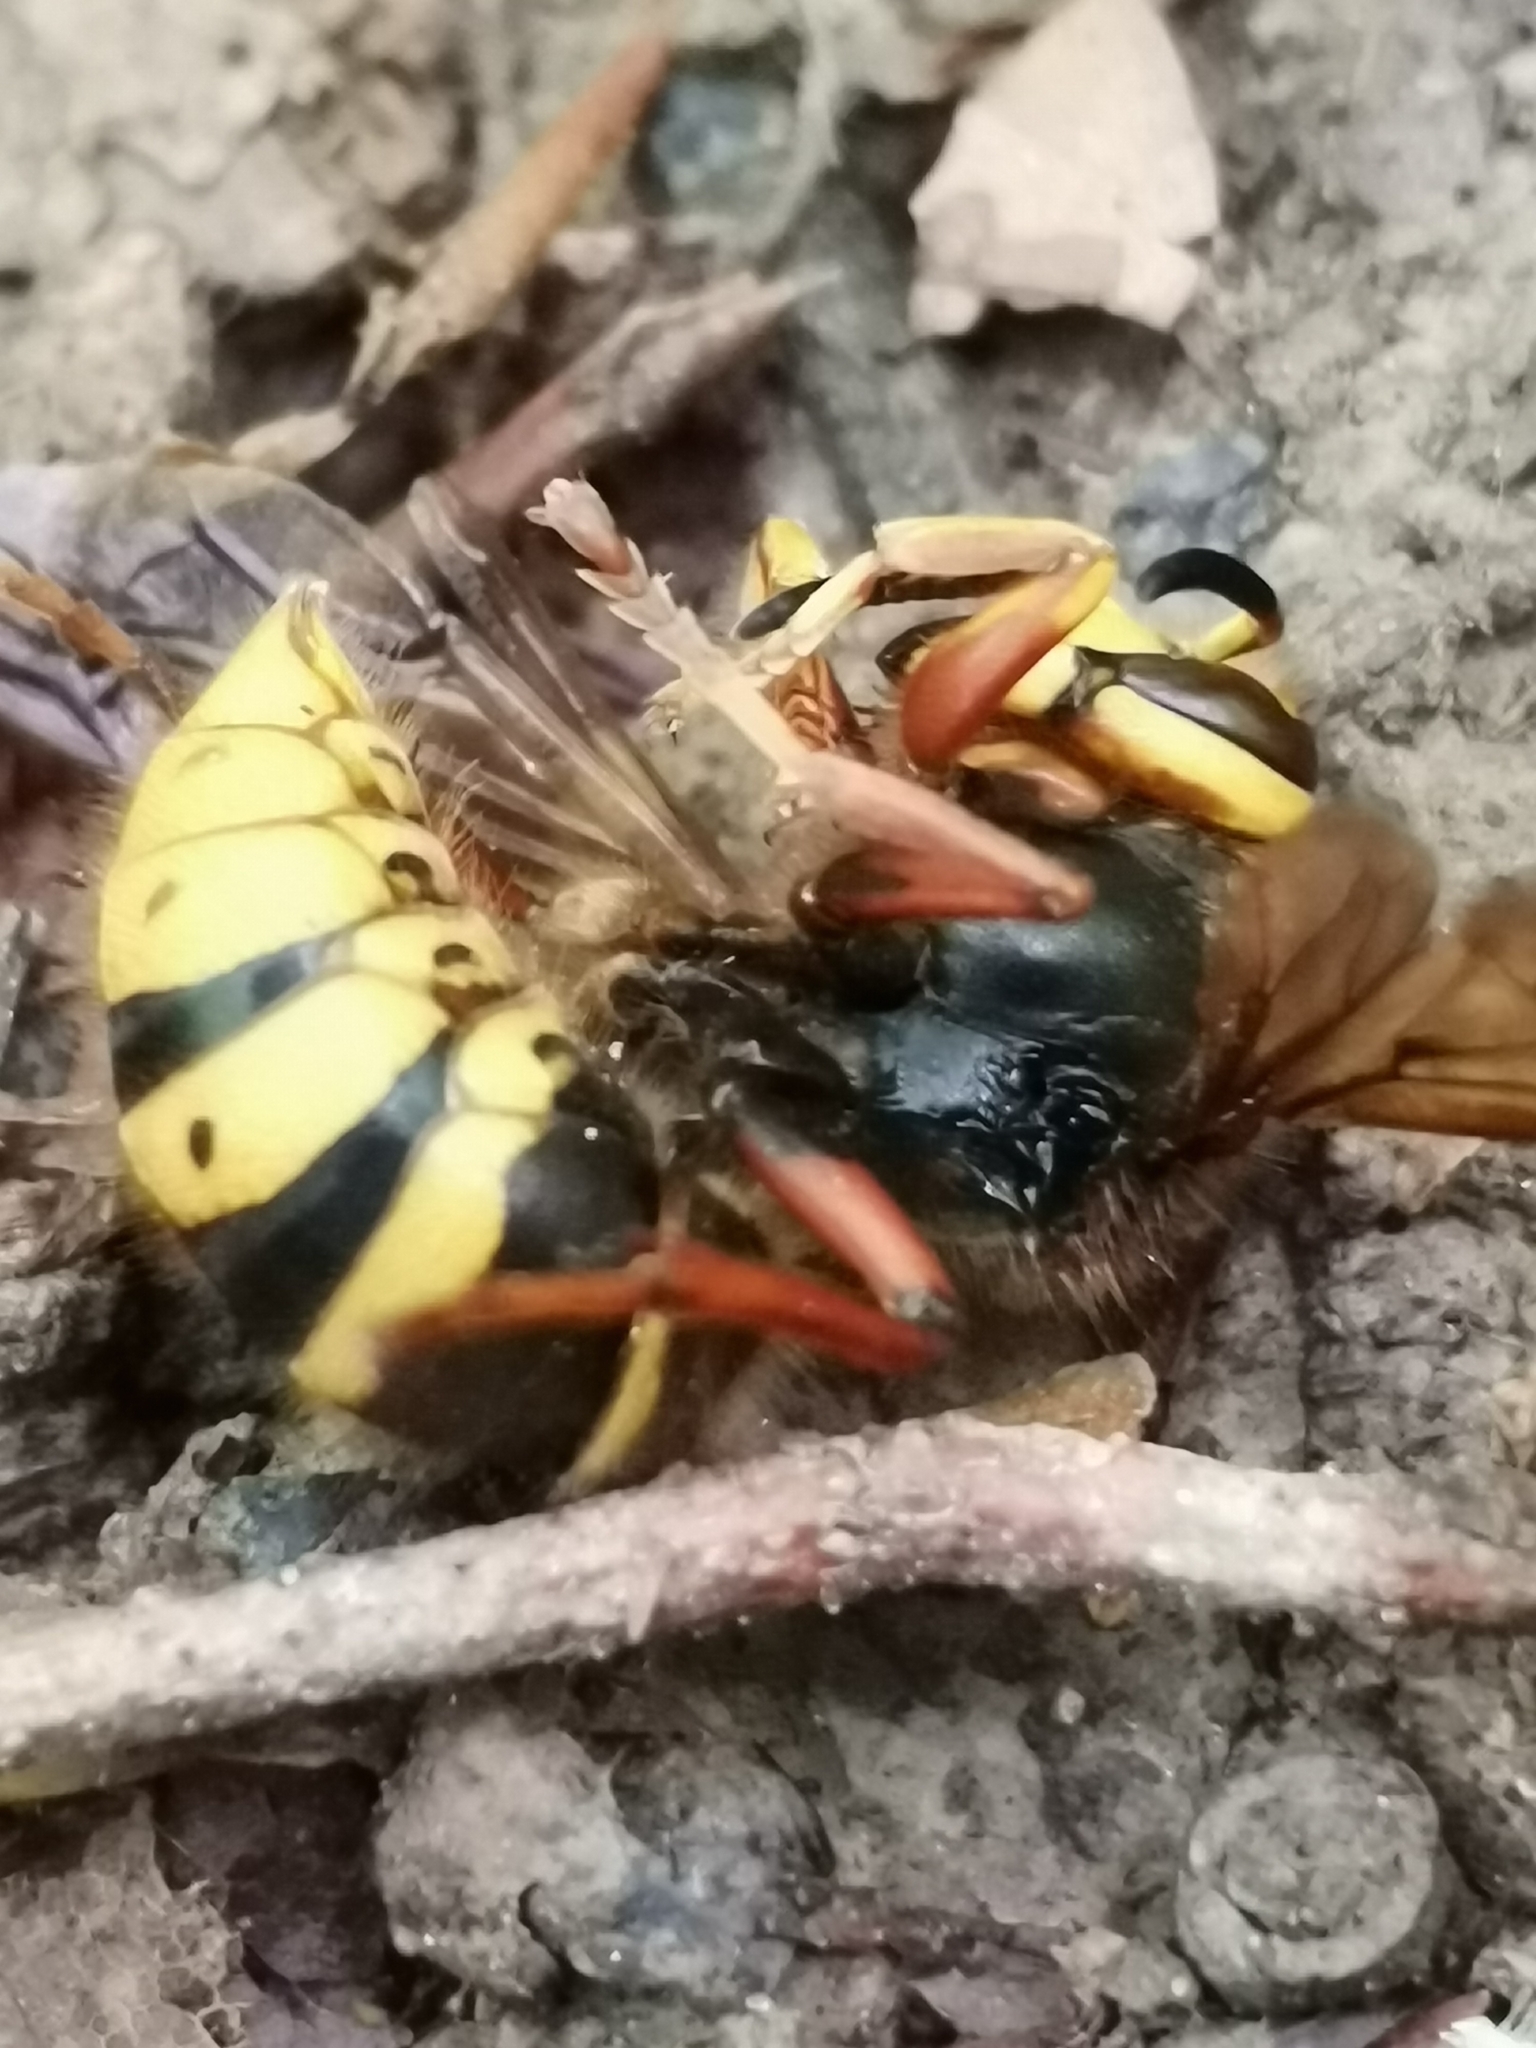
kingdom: Animalia
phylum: Arthropoda
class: Insecta
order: Hymenoptera
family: Vespidae
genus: Dolichovespula
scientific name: Dolichovespula media
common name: Median wasp
